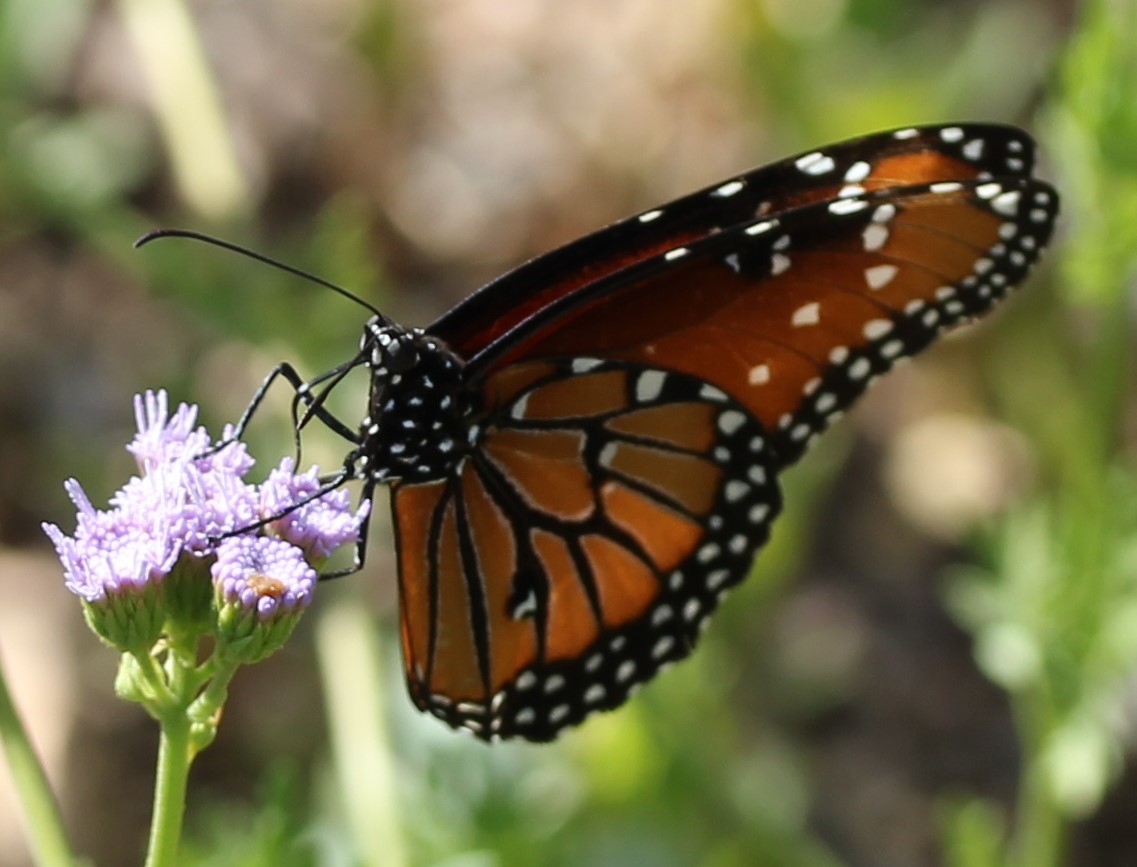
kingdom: Animalia
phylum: Arthropoda
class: Insecta
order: Lepidoptera
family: Nymphalidae
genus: Danaus
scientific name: Danaus gilippus
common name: Queen
